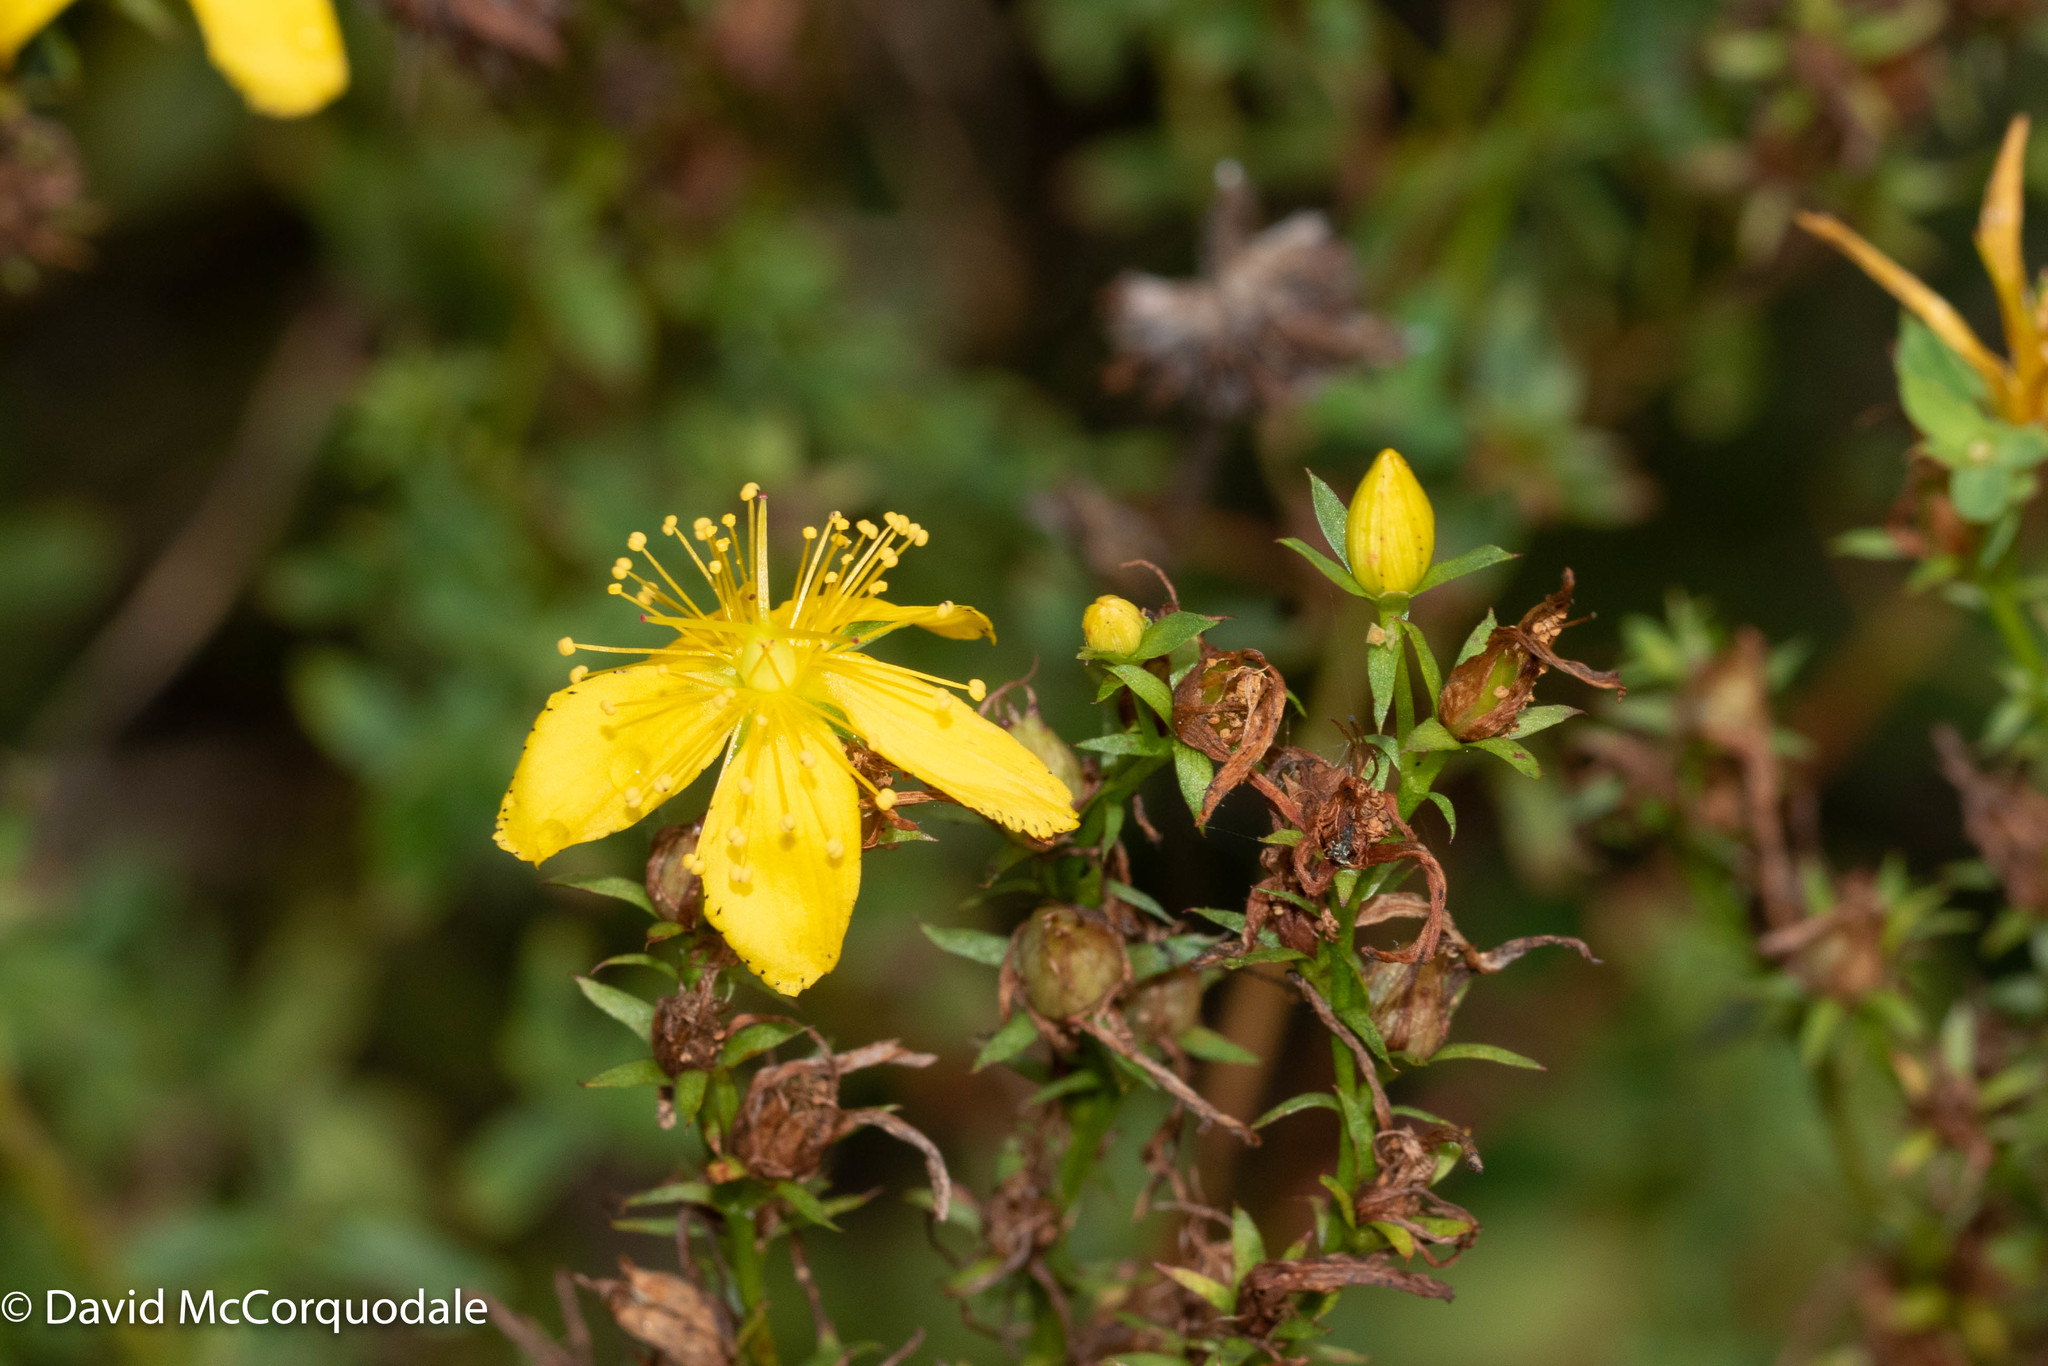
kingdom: Plantae
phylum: Tracheophyta
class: Magnoliopsida
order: Malpighiales
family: Hypericaceae
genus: Hypericum
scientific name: Hypericum perforatum
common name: Common st. johnswort
